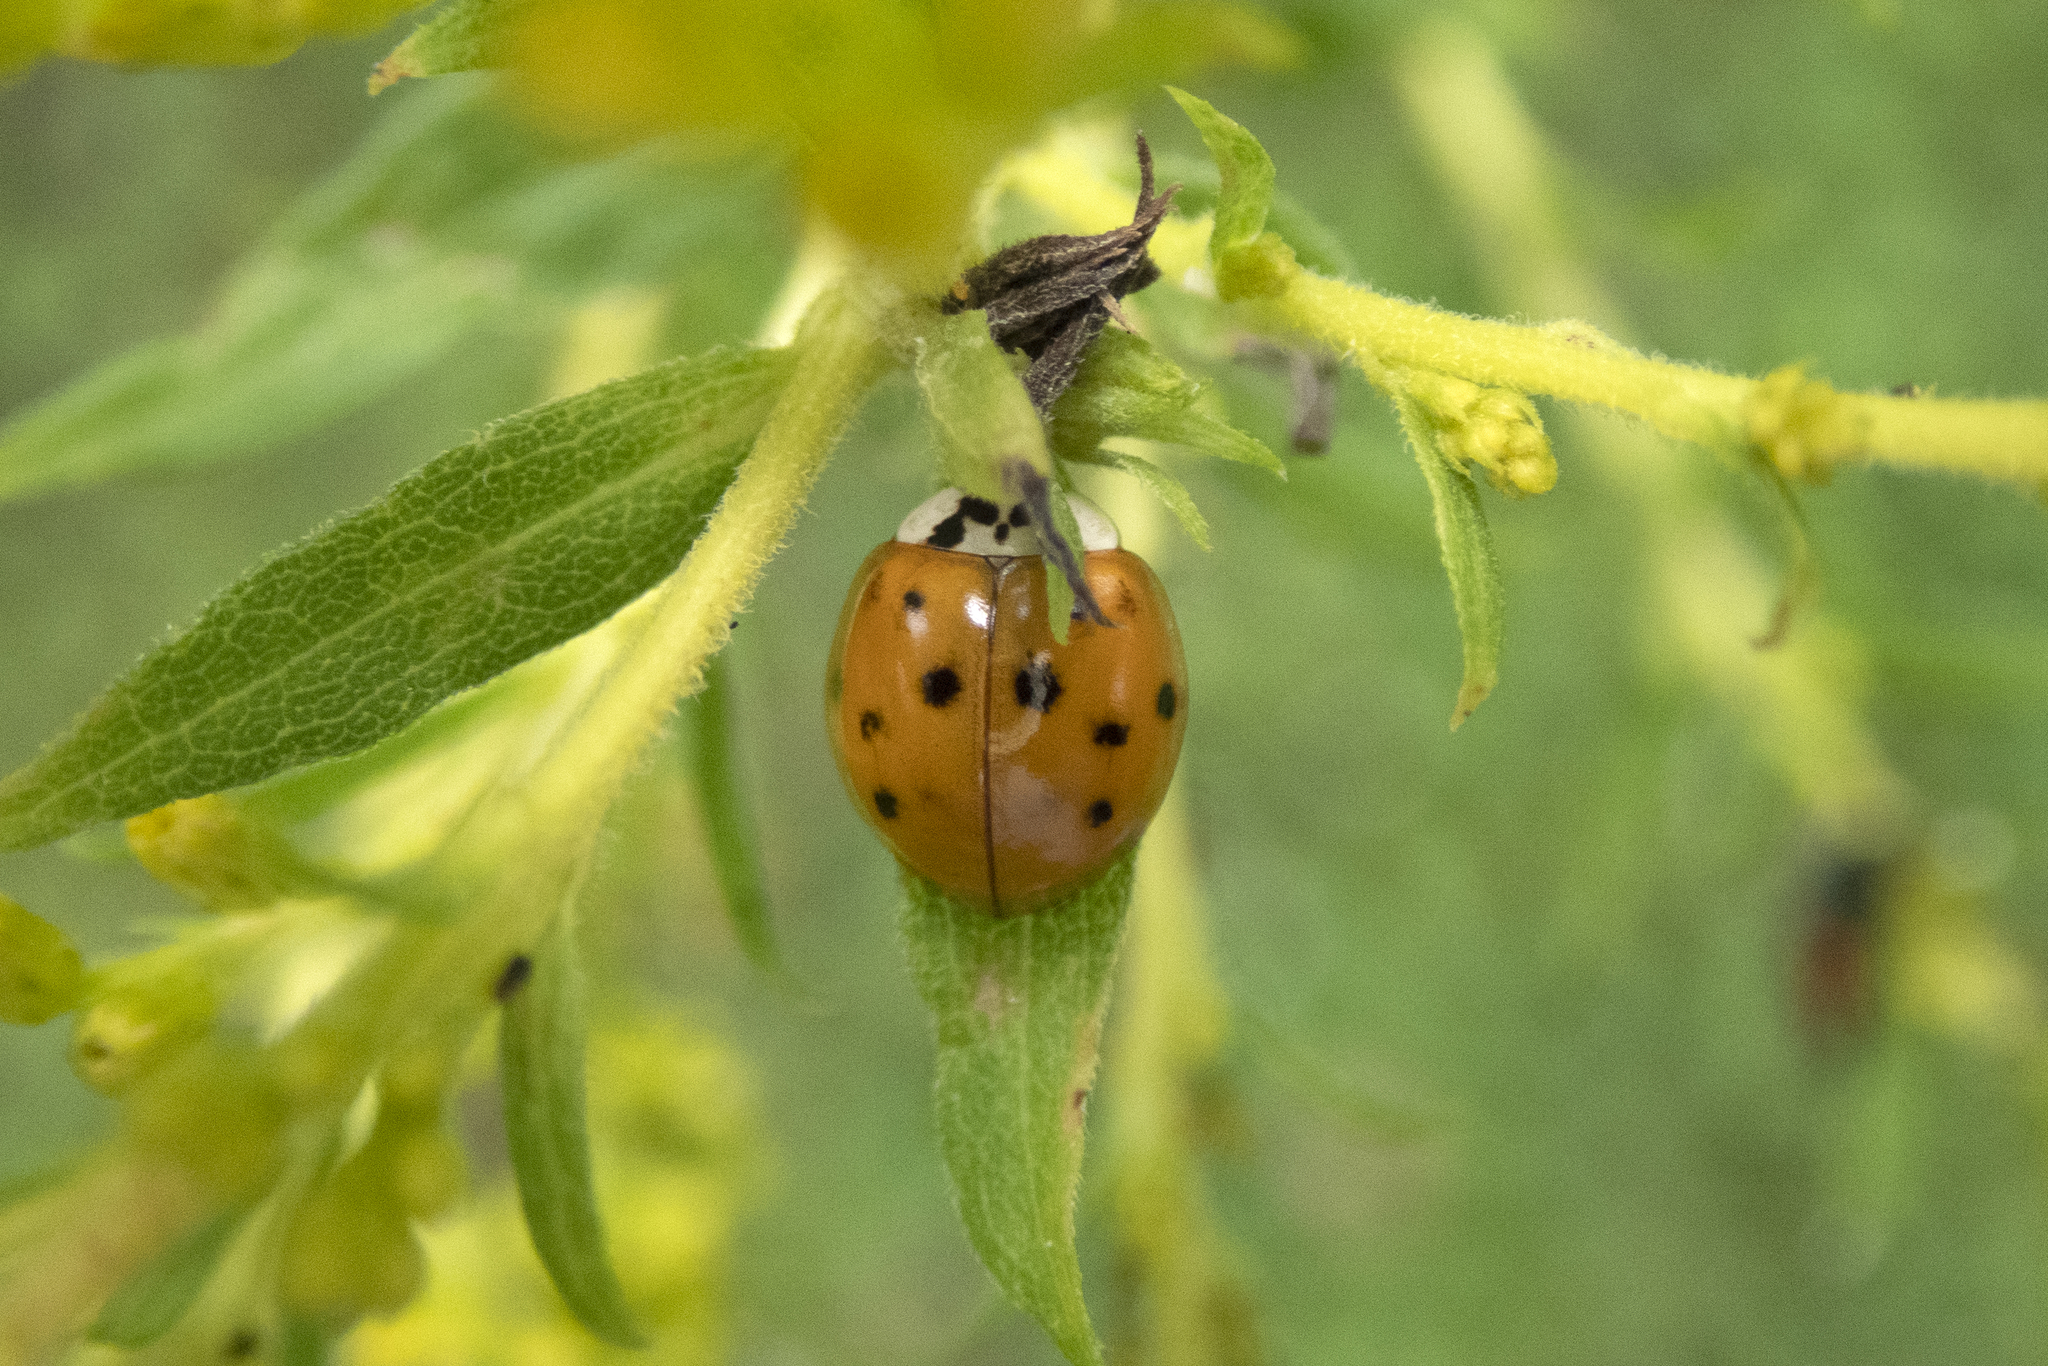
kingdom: Animalia
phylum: Arthropoda
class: Insecta
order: Coleoptera
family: Coccinellidae
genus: Harmonia
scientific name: Harmonia axyridis
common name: Harlequin ladybird
